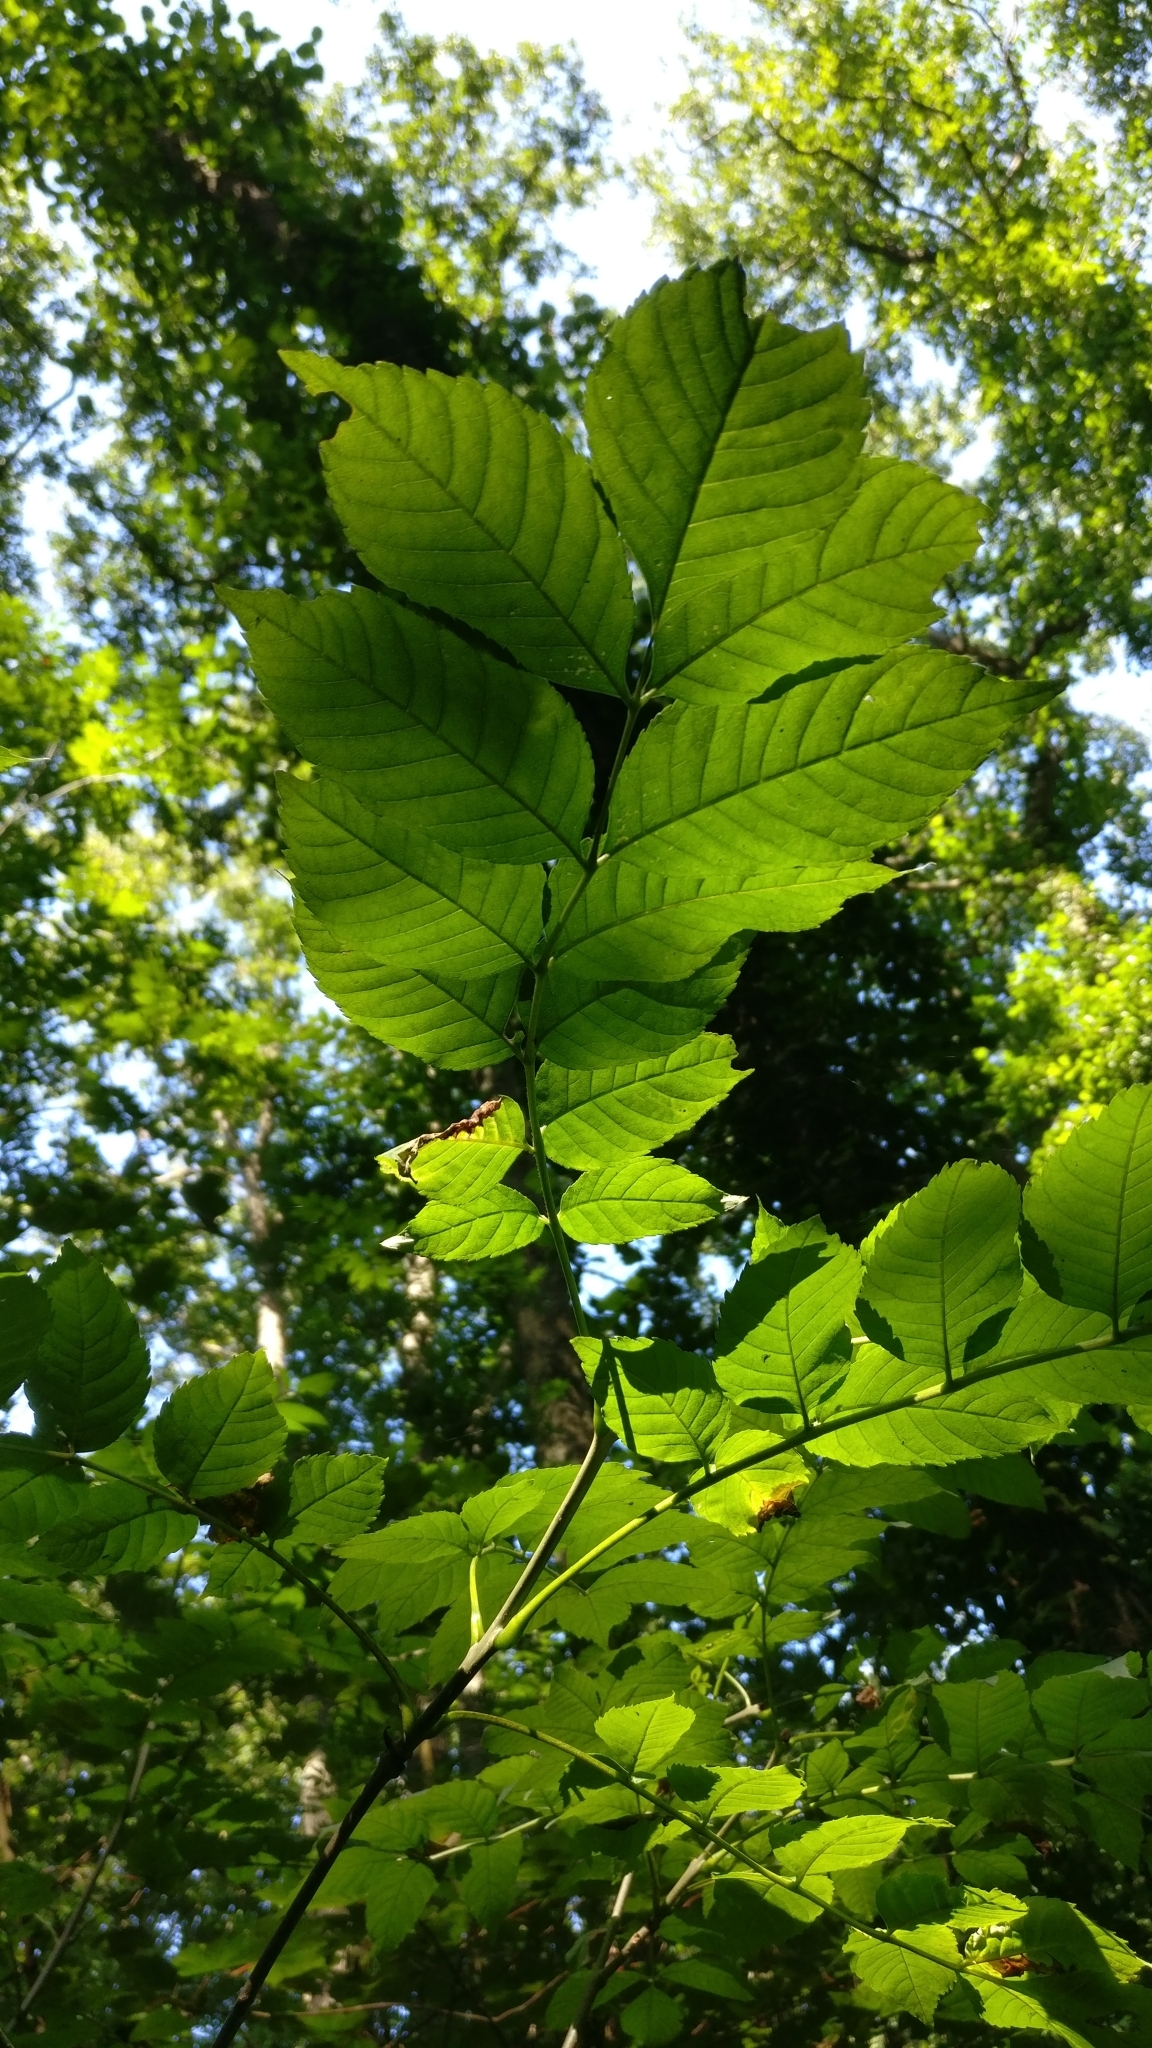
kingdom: Plantae
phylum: Tracheophyta
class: Magnoliopsida
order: Lamiales
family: Oleaceae
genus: Fraxinus
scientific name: Fraxinus excelsior
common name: European ash
